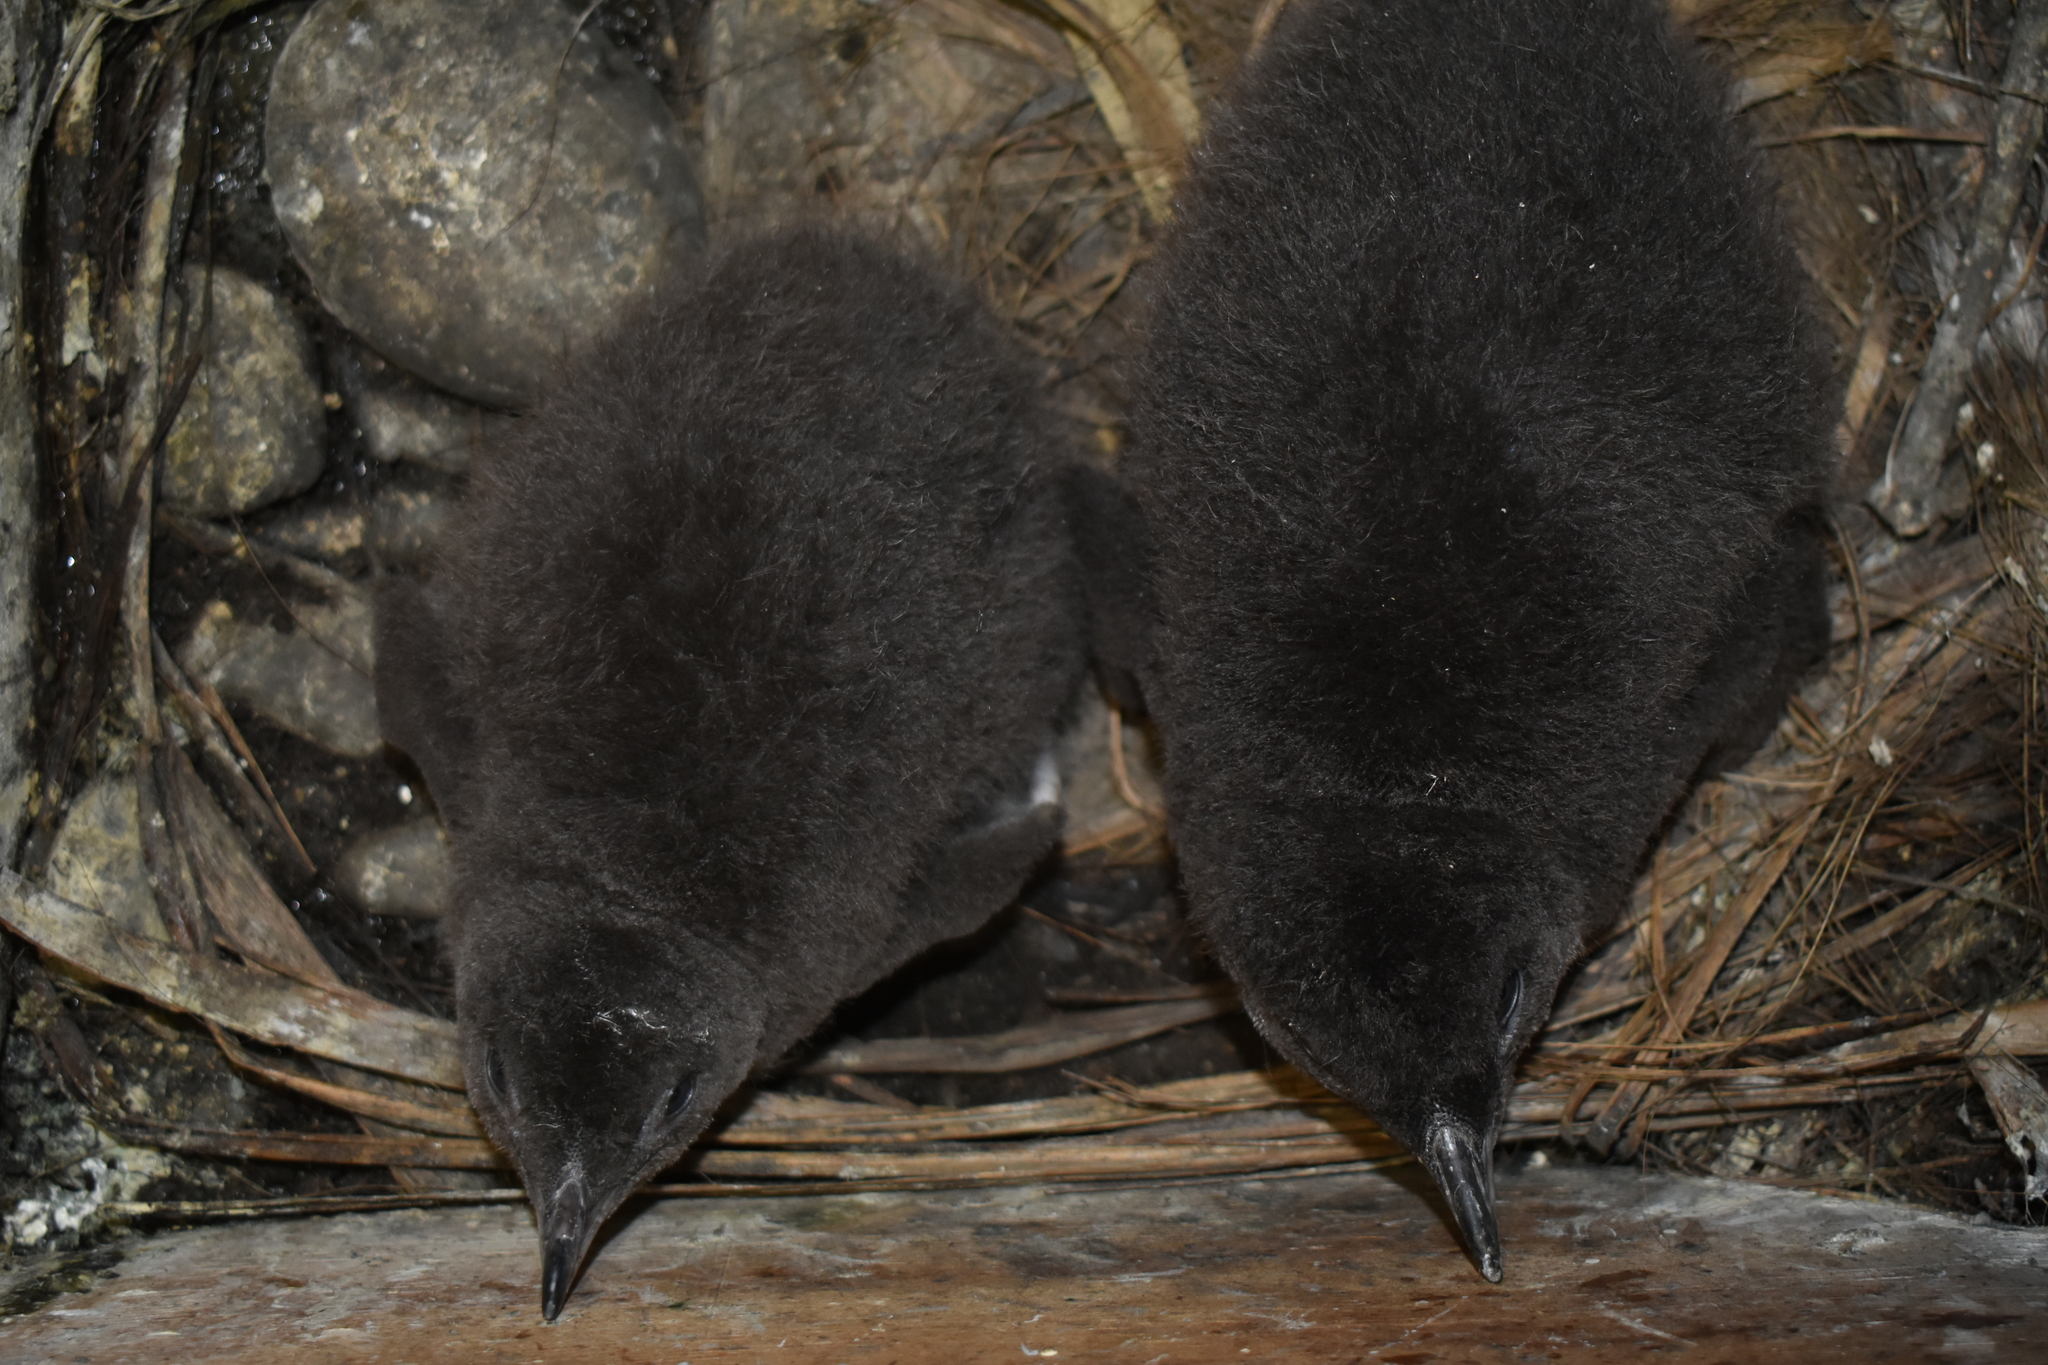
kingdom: Animalia
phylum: Chordata
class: Aves
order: Sphenisciformes
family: Spheniscidae
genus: Eudyptula
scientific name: Eudyptula minor
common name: Little penguin
